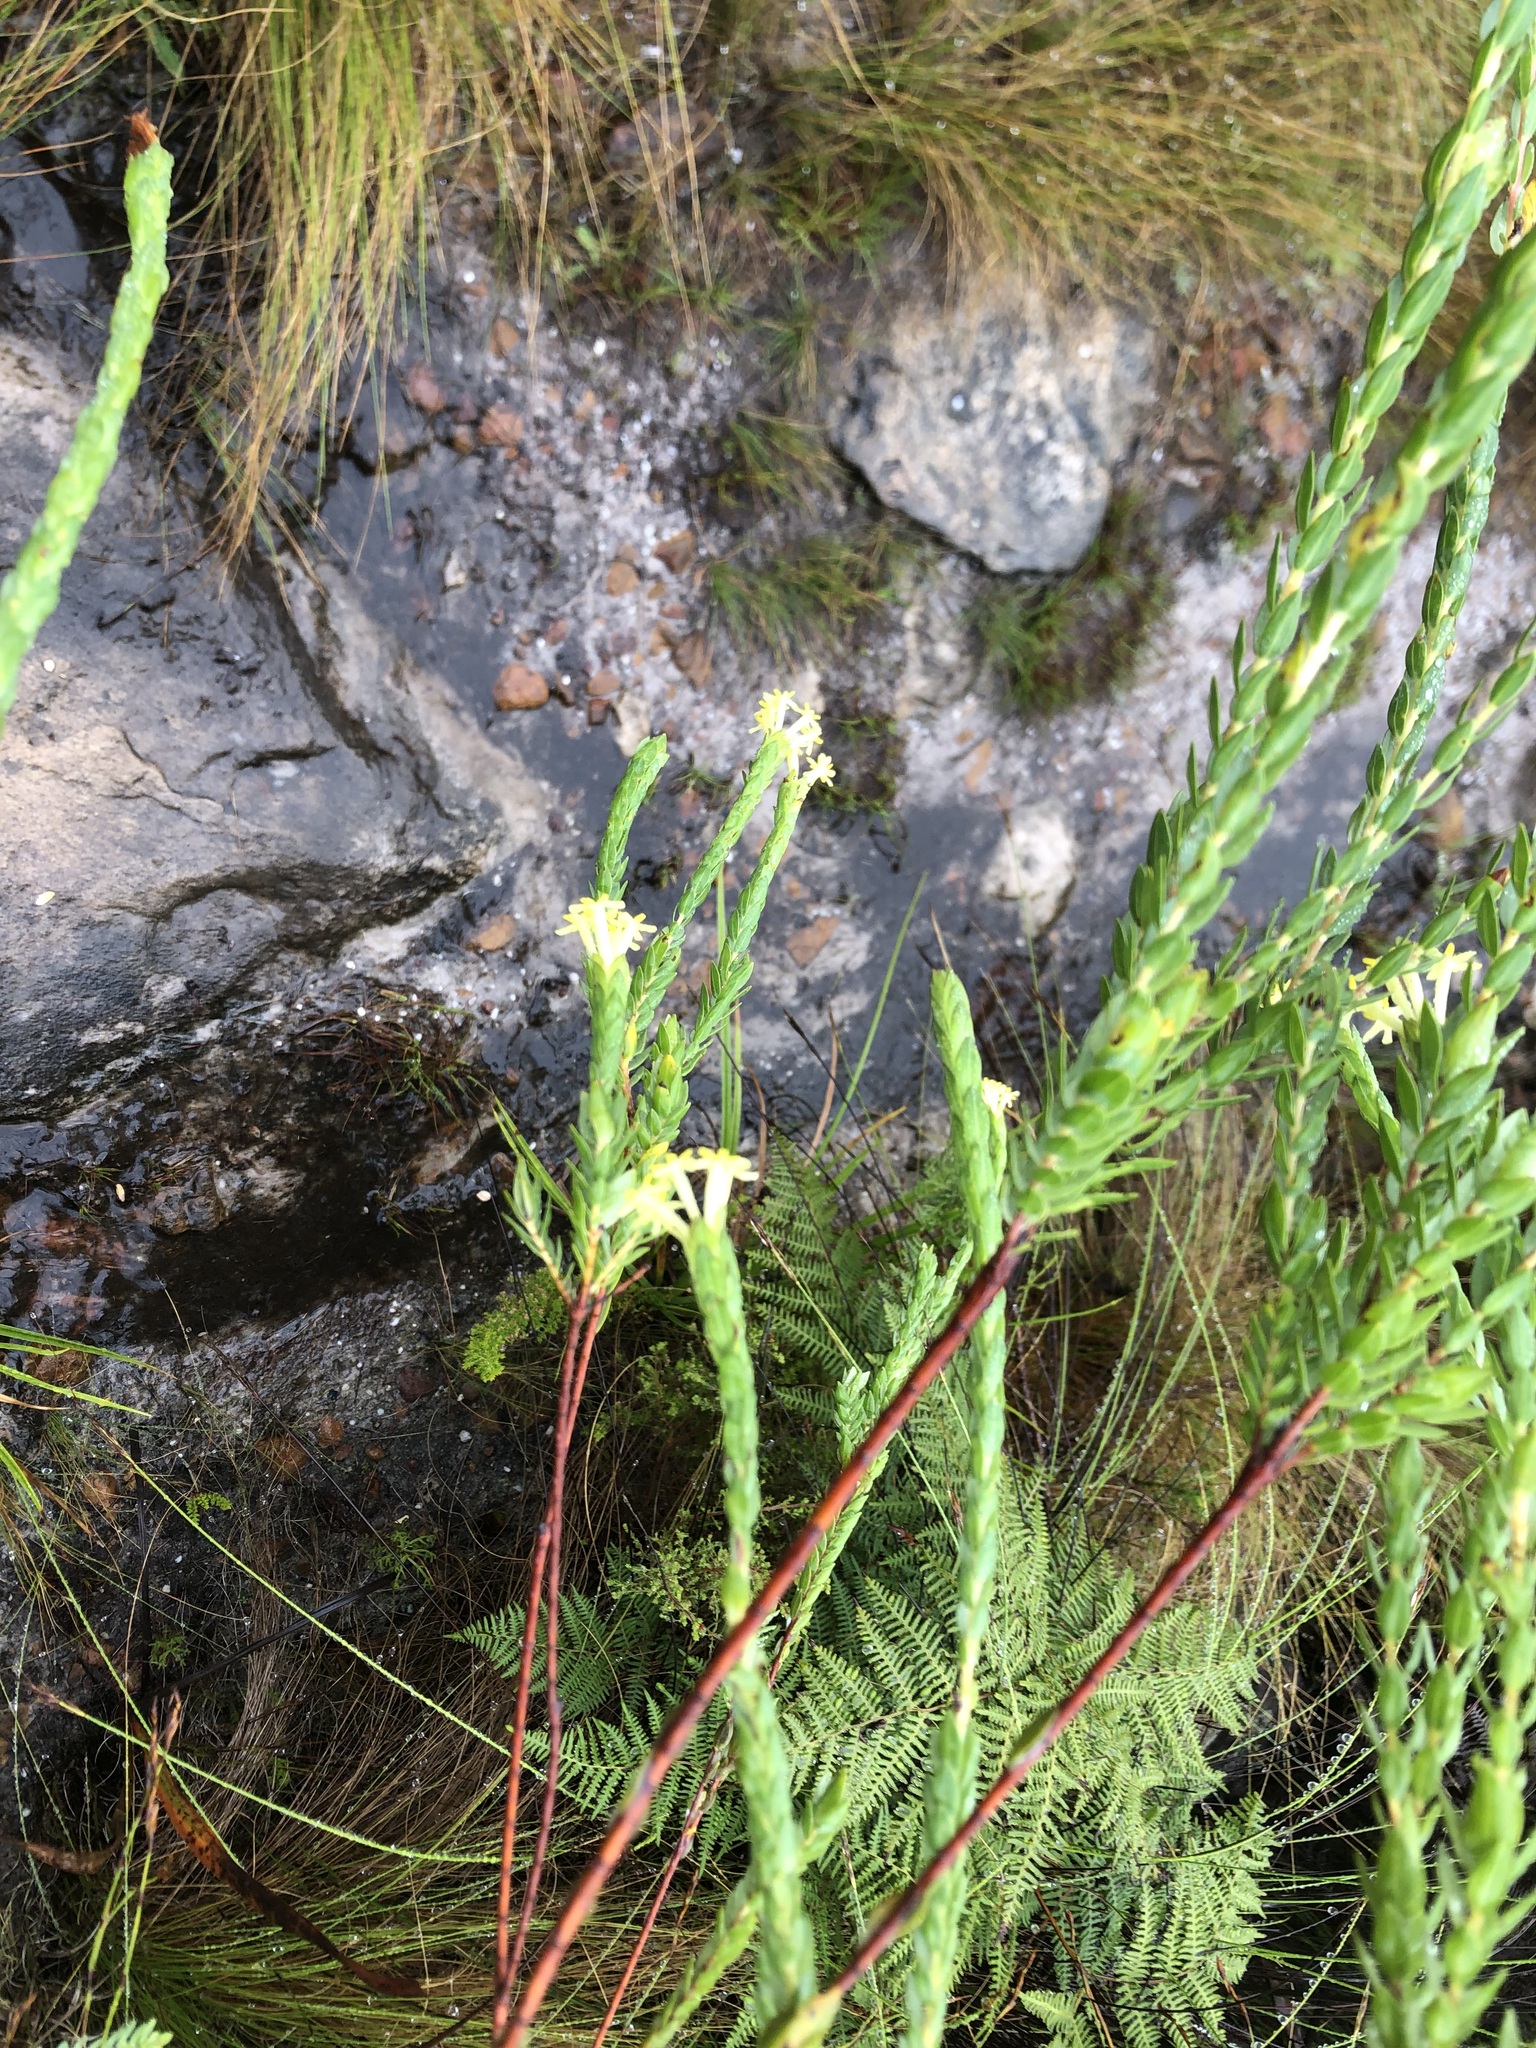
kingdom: Plantae
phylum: Tracheophyta
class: Magnoliopsida
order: Malvales
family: Thymelaeaceae
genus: Gnidia
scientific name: Gnidia oppositifolia
